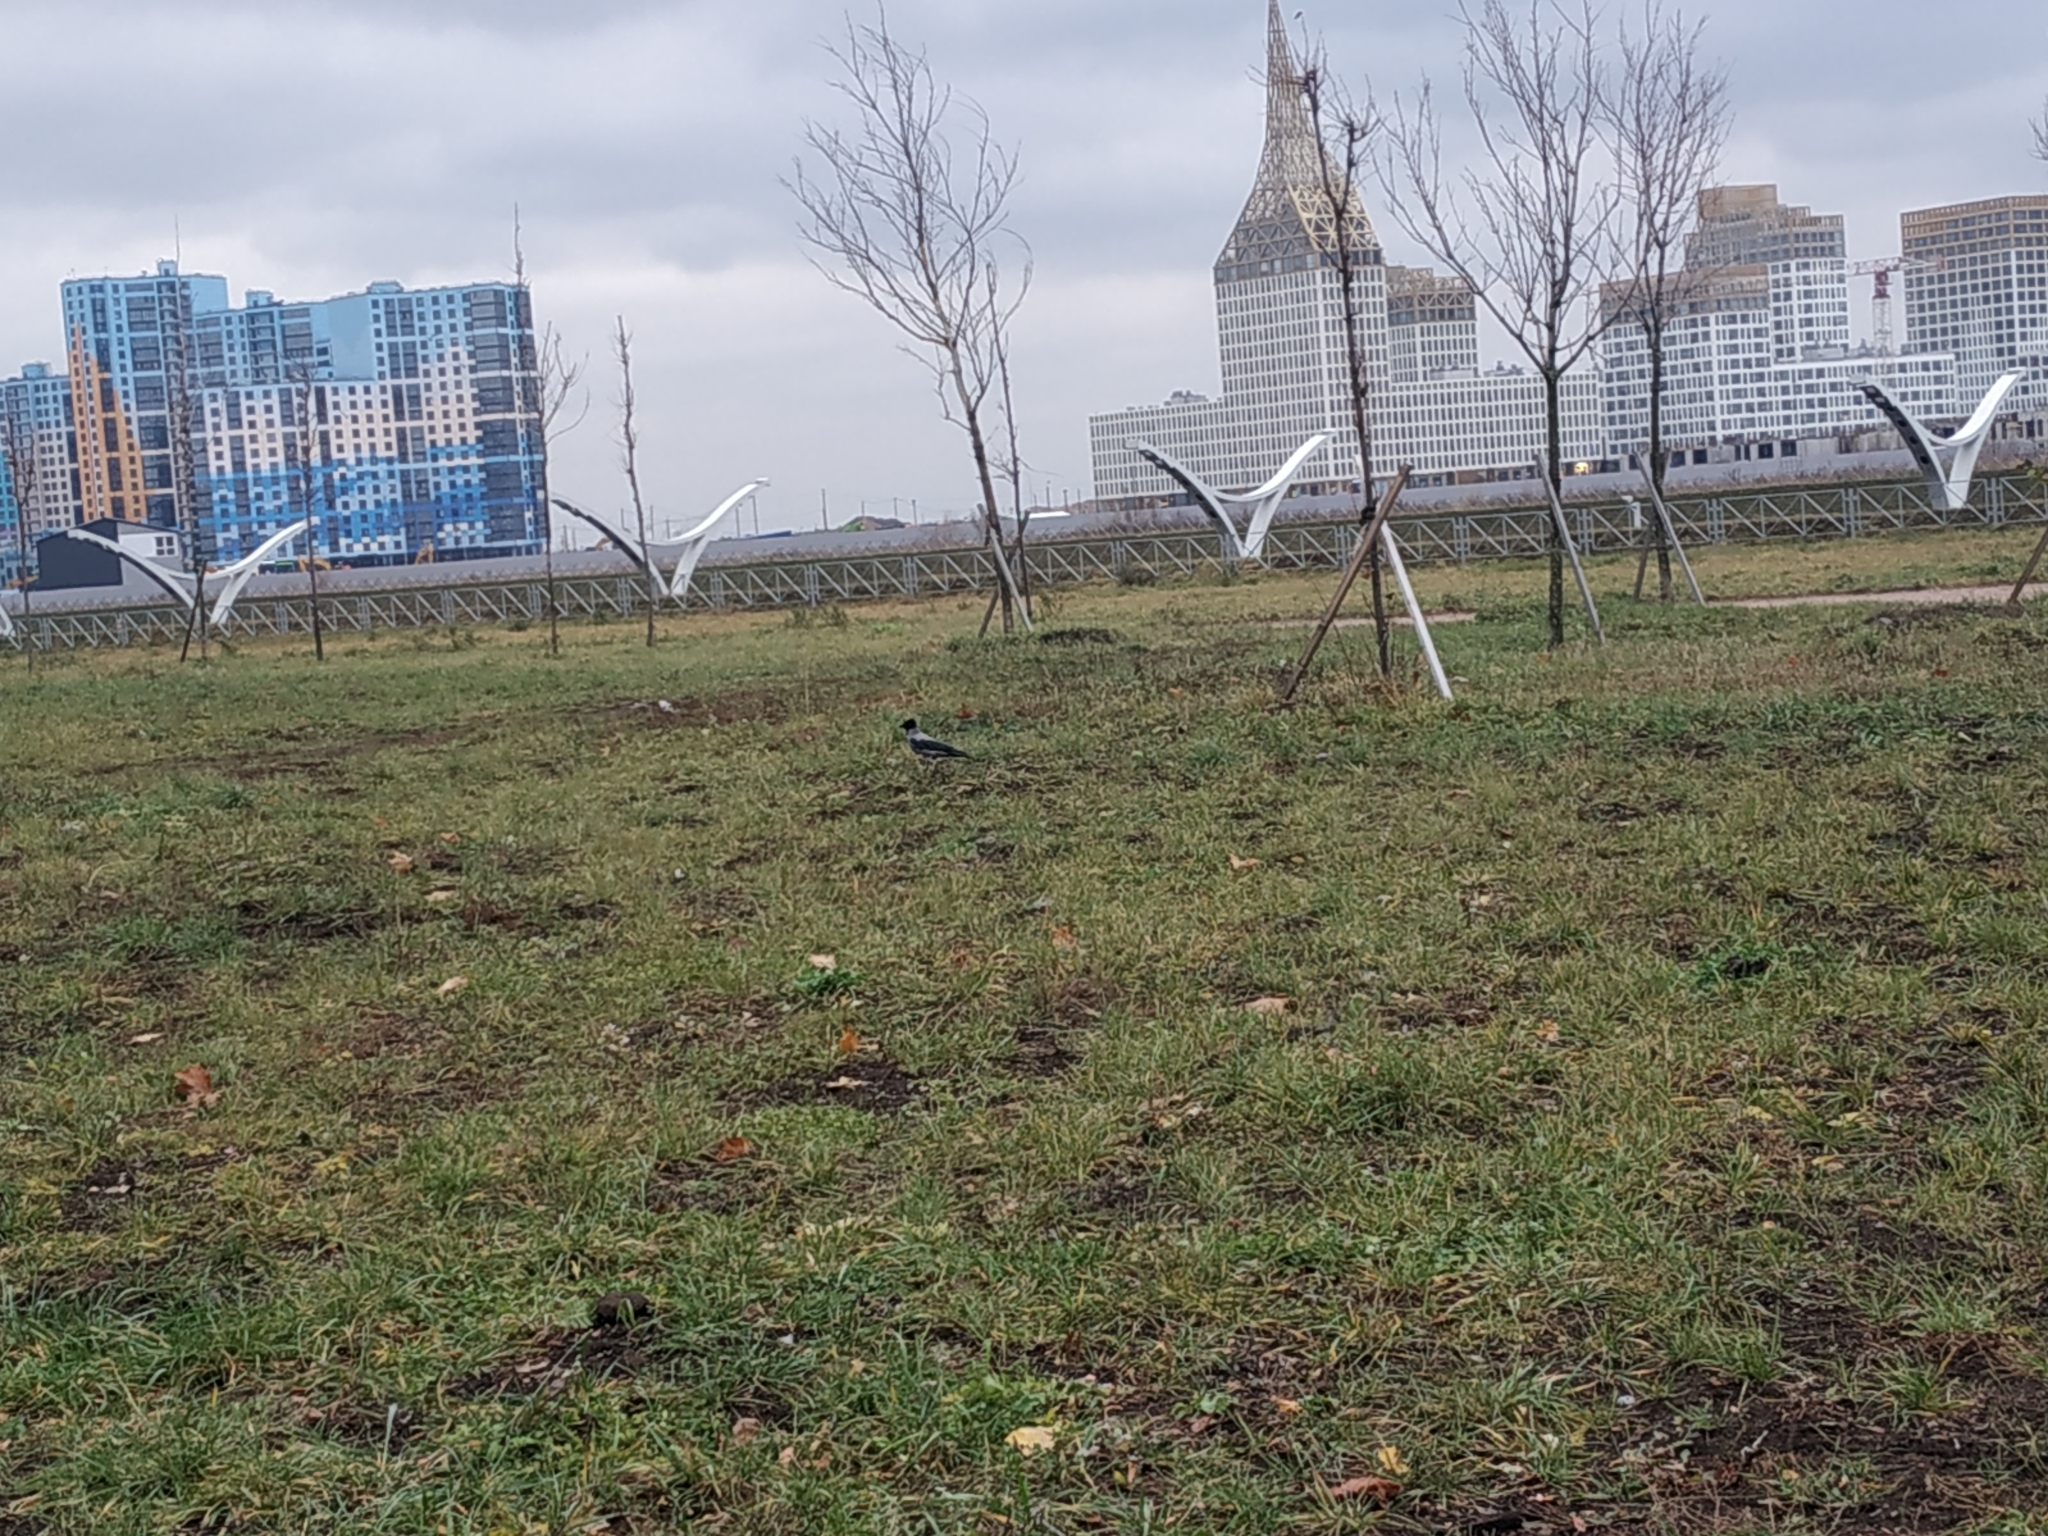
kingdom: Animalia
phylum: Chordata
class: Aves
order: Passeriformes
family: Corvidae
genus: Corvus
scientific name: Corvus cornix
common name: Hooded crow
